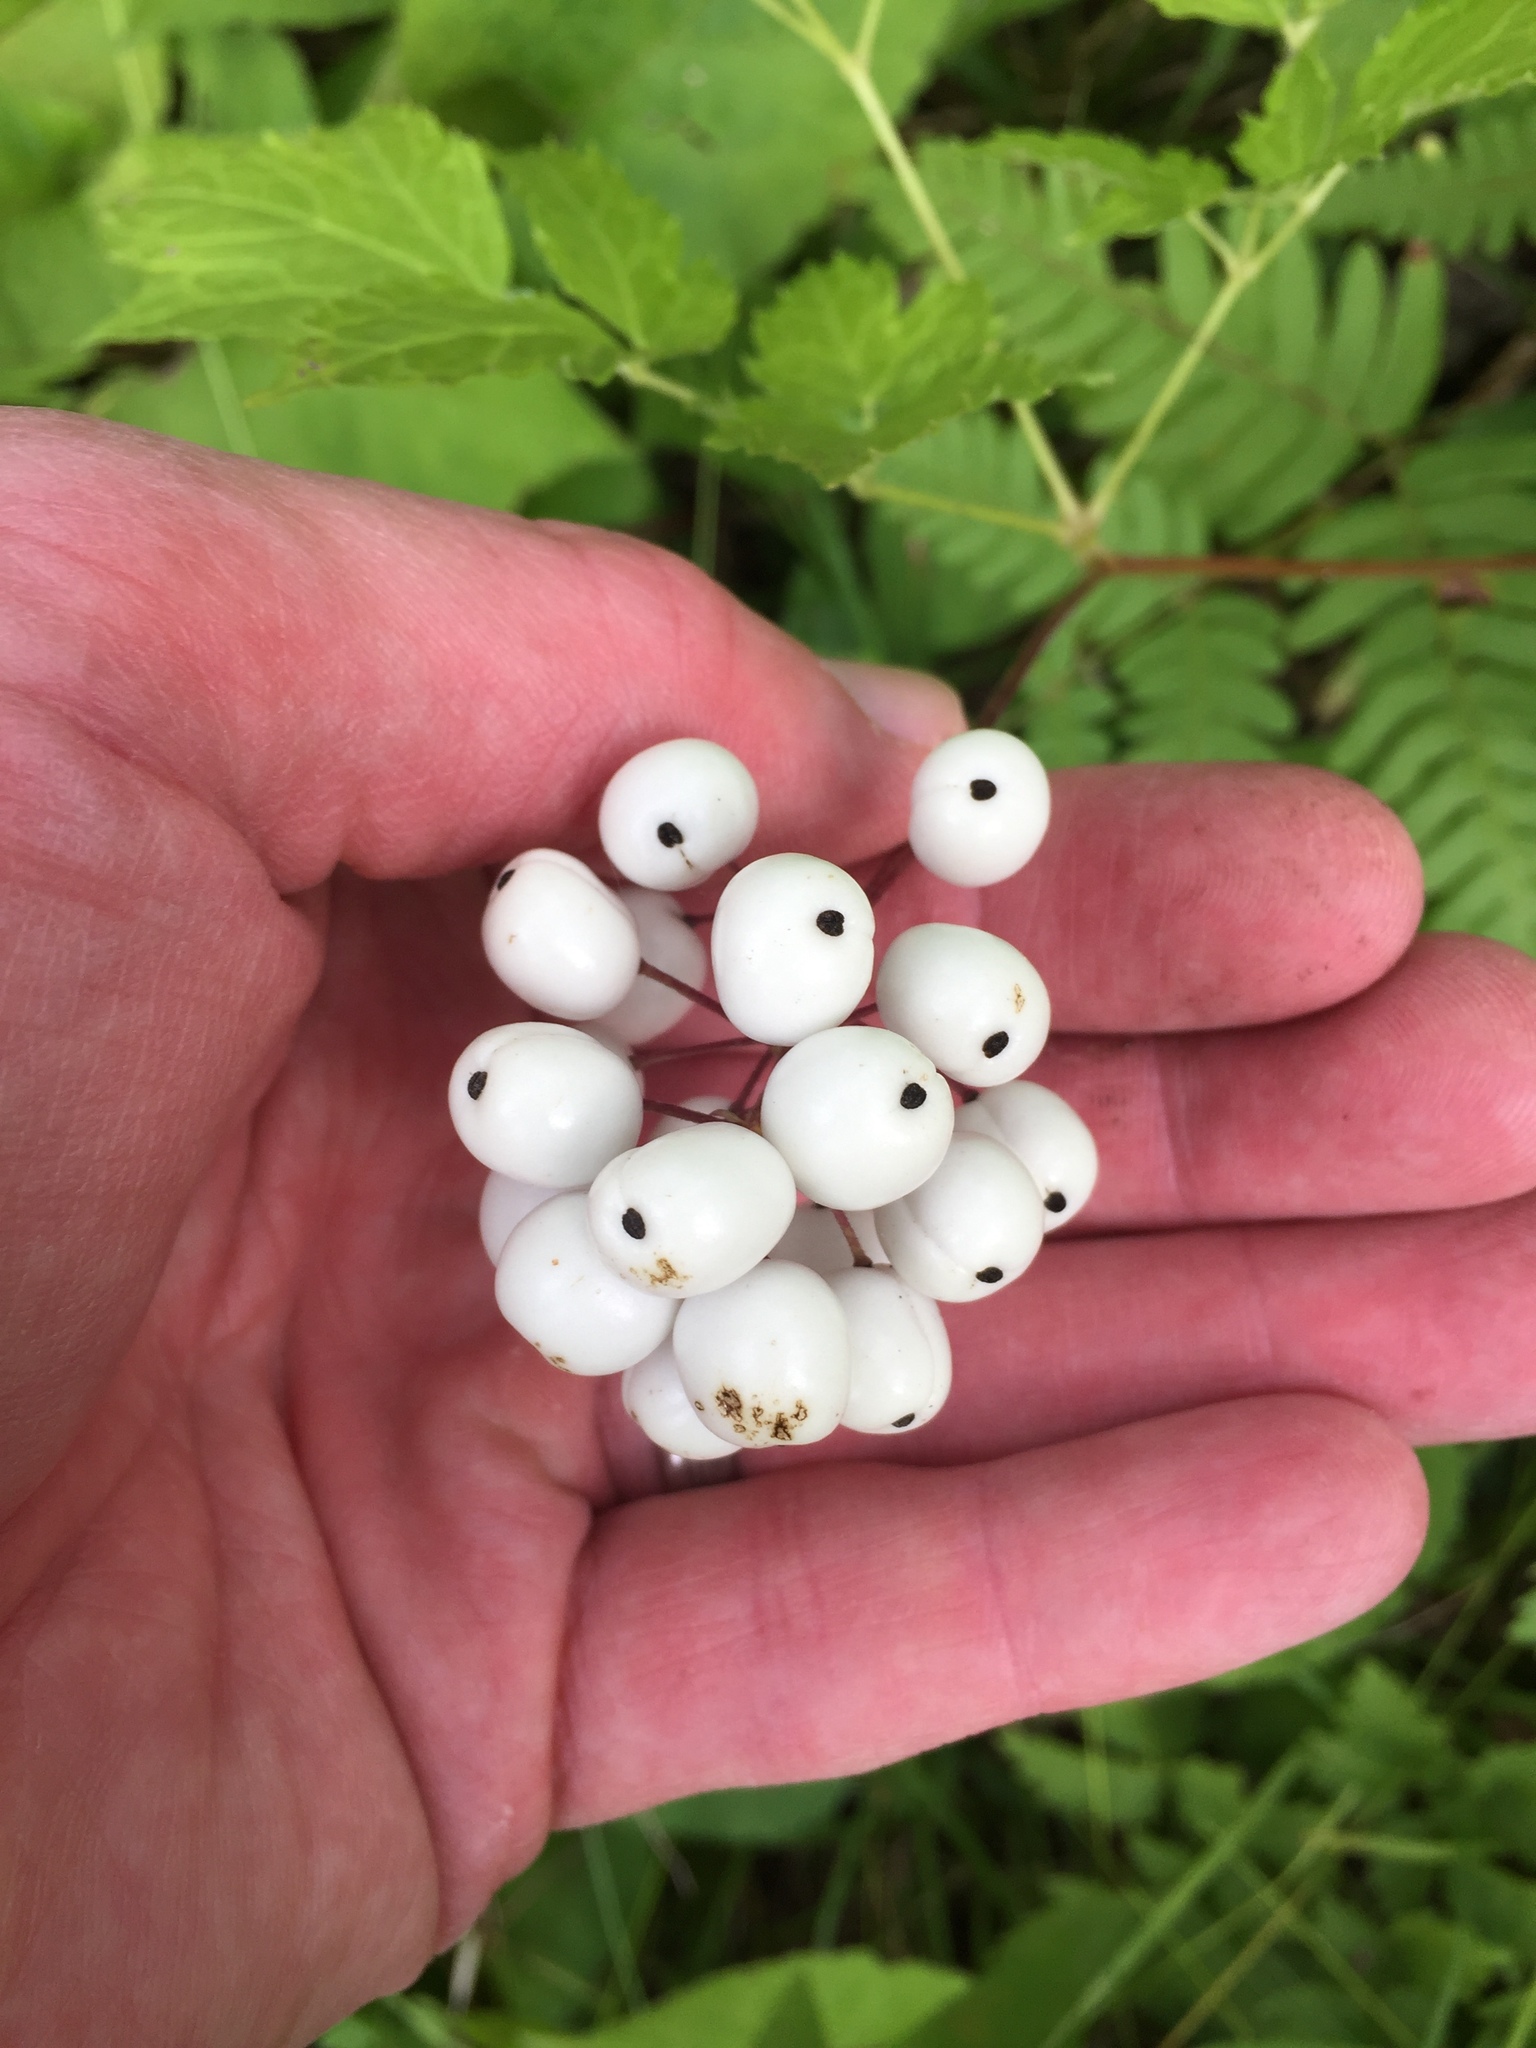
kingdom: Plantae
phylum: Tracheophyta
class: Magnoliopsida
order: Ranunculales
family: Ranunculaceae
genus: Actaea
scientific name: Actaea rubra
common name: Red baneberry
